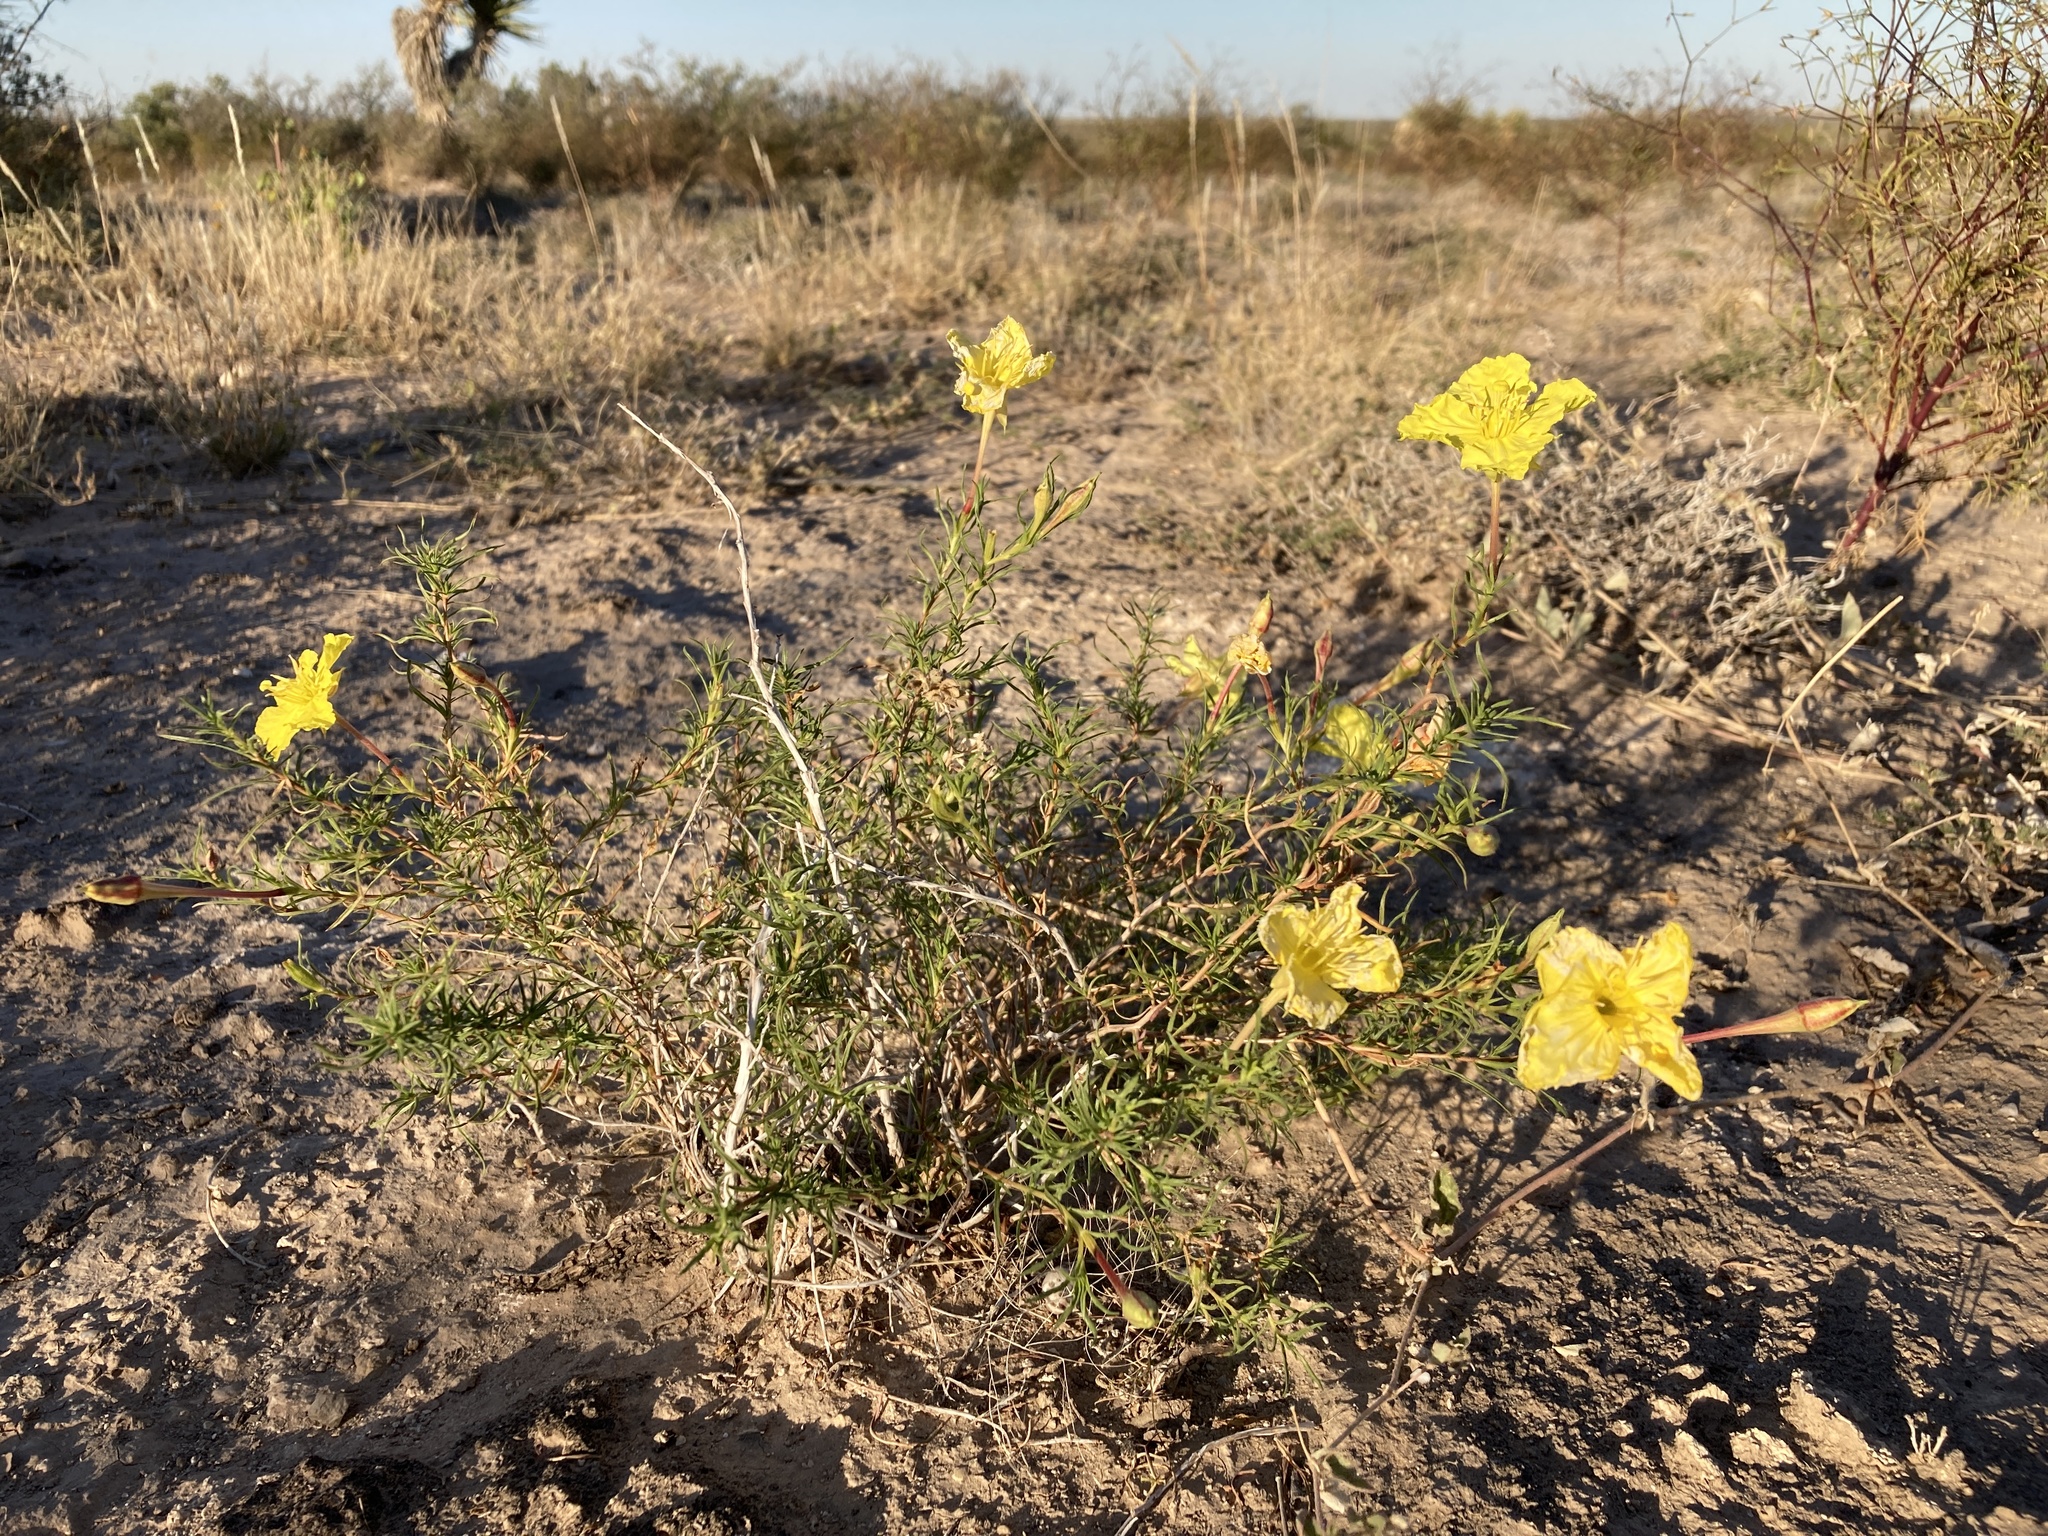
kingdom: Plantae
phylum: Tracheophyta
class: Magnoliopsida
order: Myrtales
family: Onagraceae
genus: Oenothera
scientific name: Oenothera hartwegii
